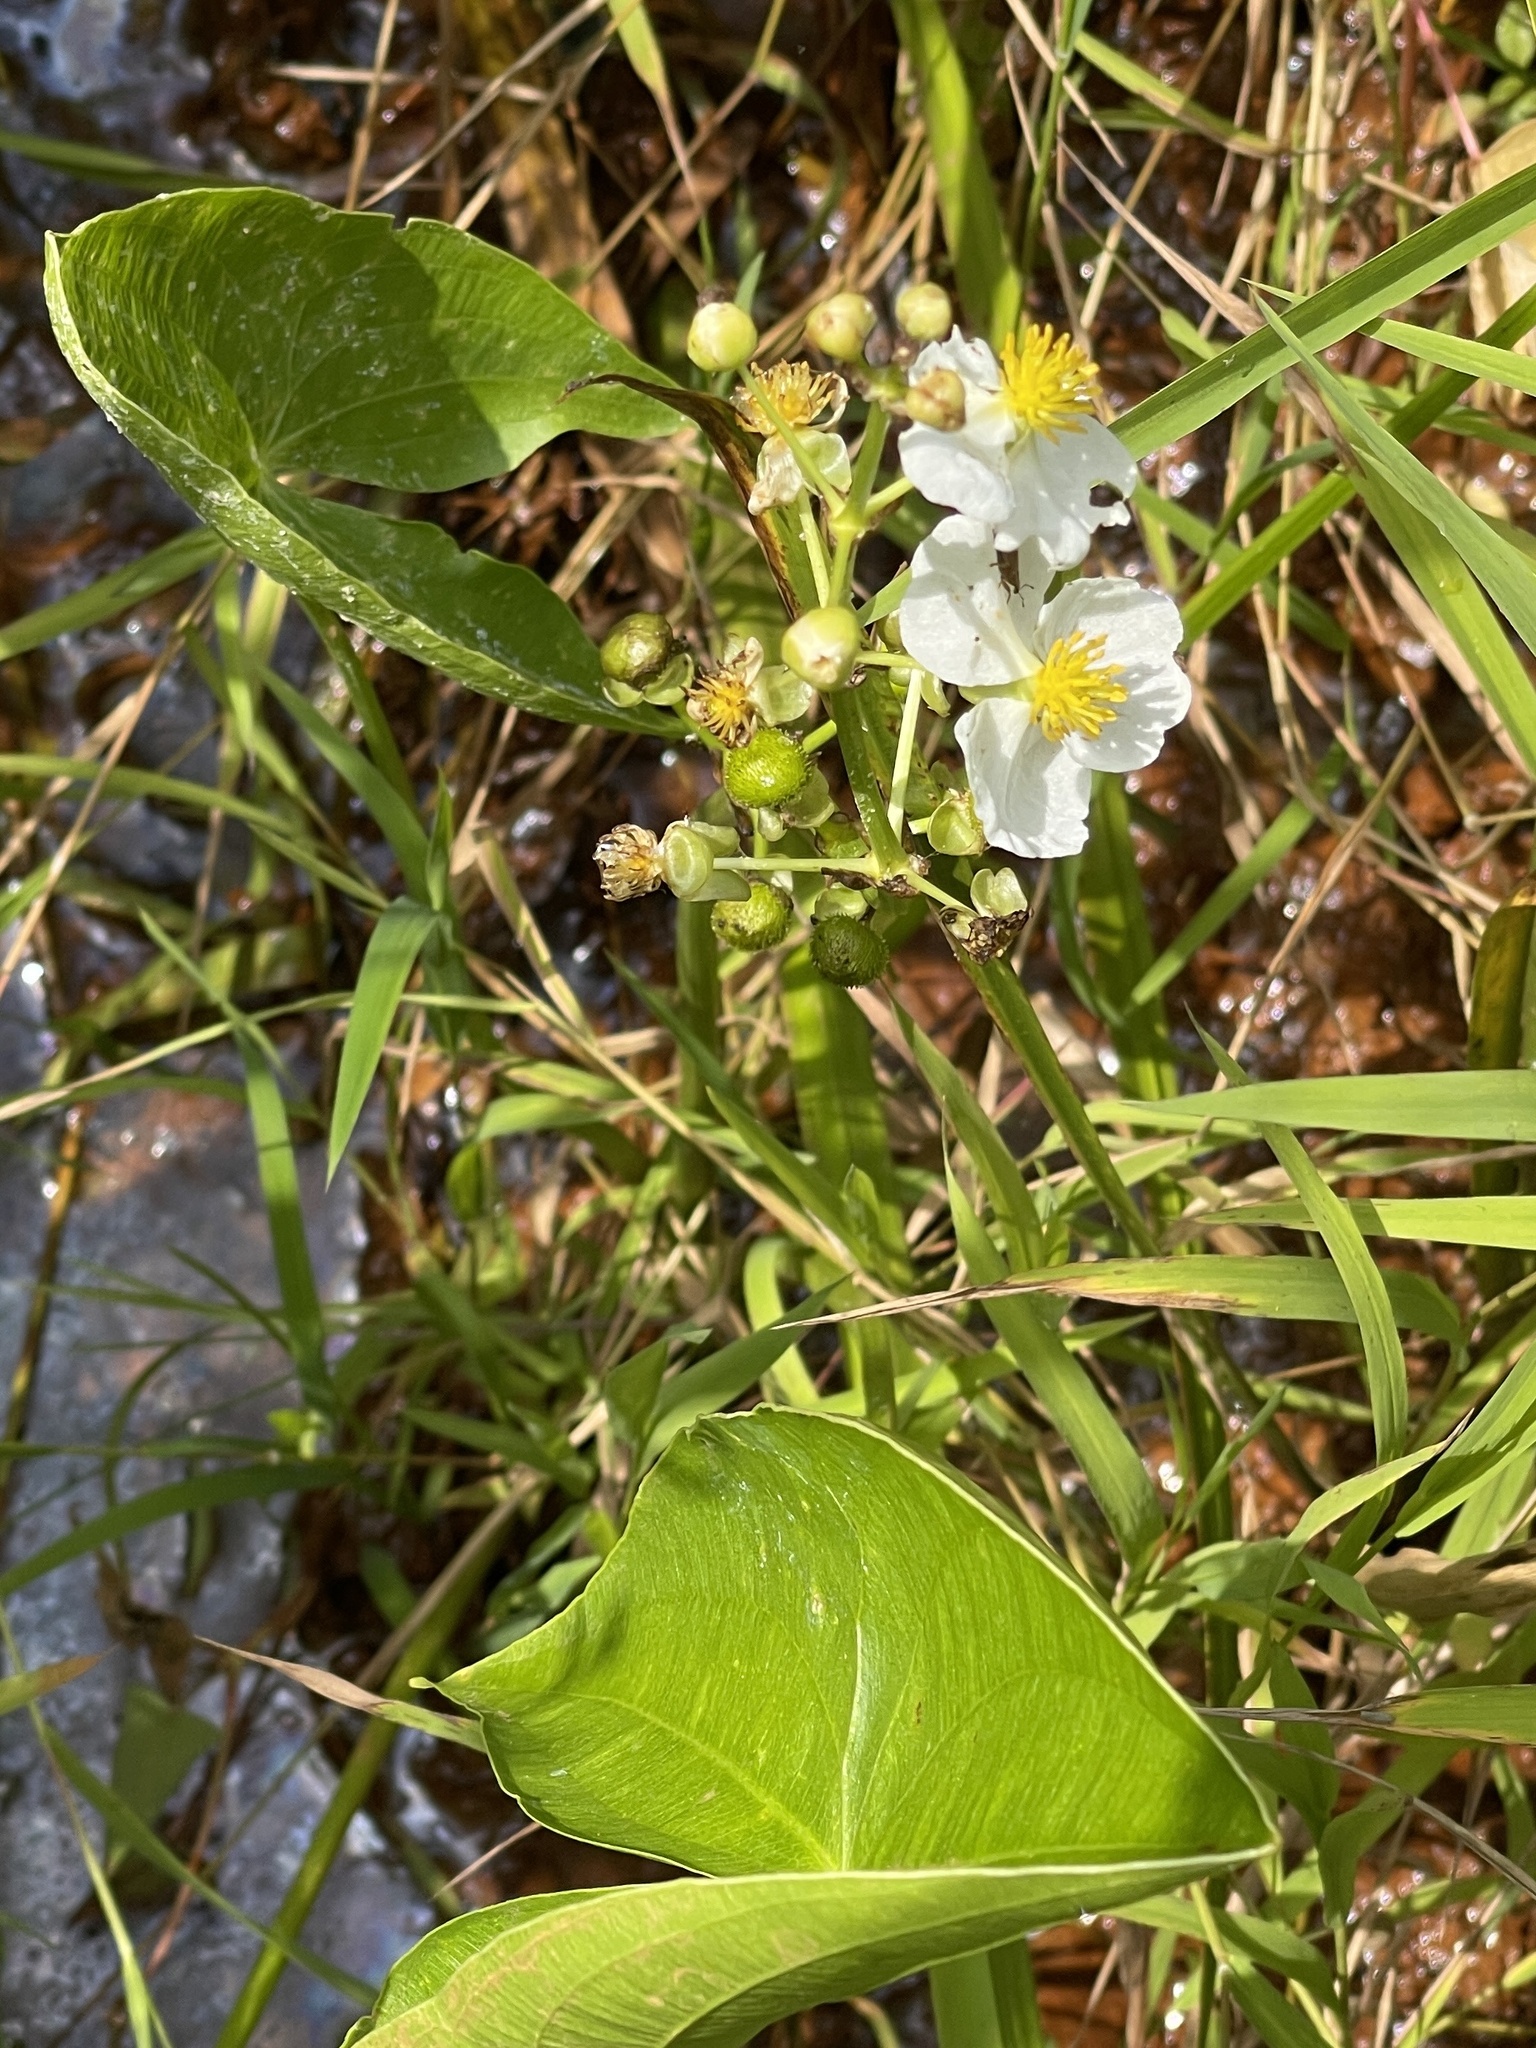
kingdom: Plantae
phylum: Tracheophyta
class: Liliopsida
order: Alismatales
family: Alismataceae
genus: Sagittaria
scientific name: Sagittaria latifolia
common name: Duck-potato
